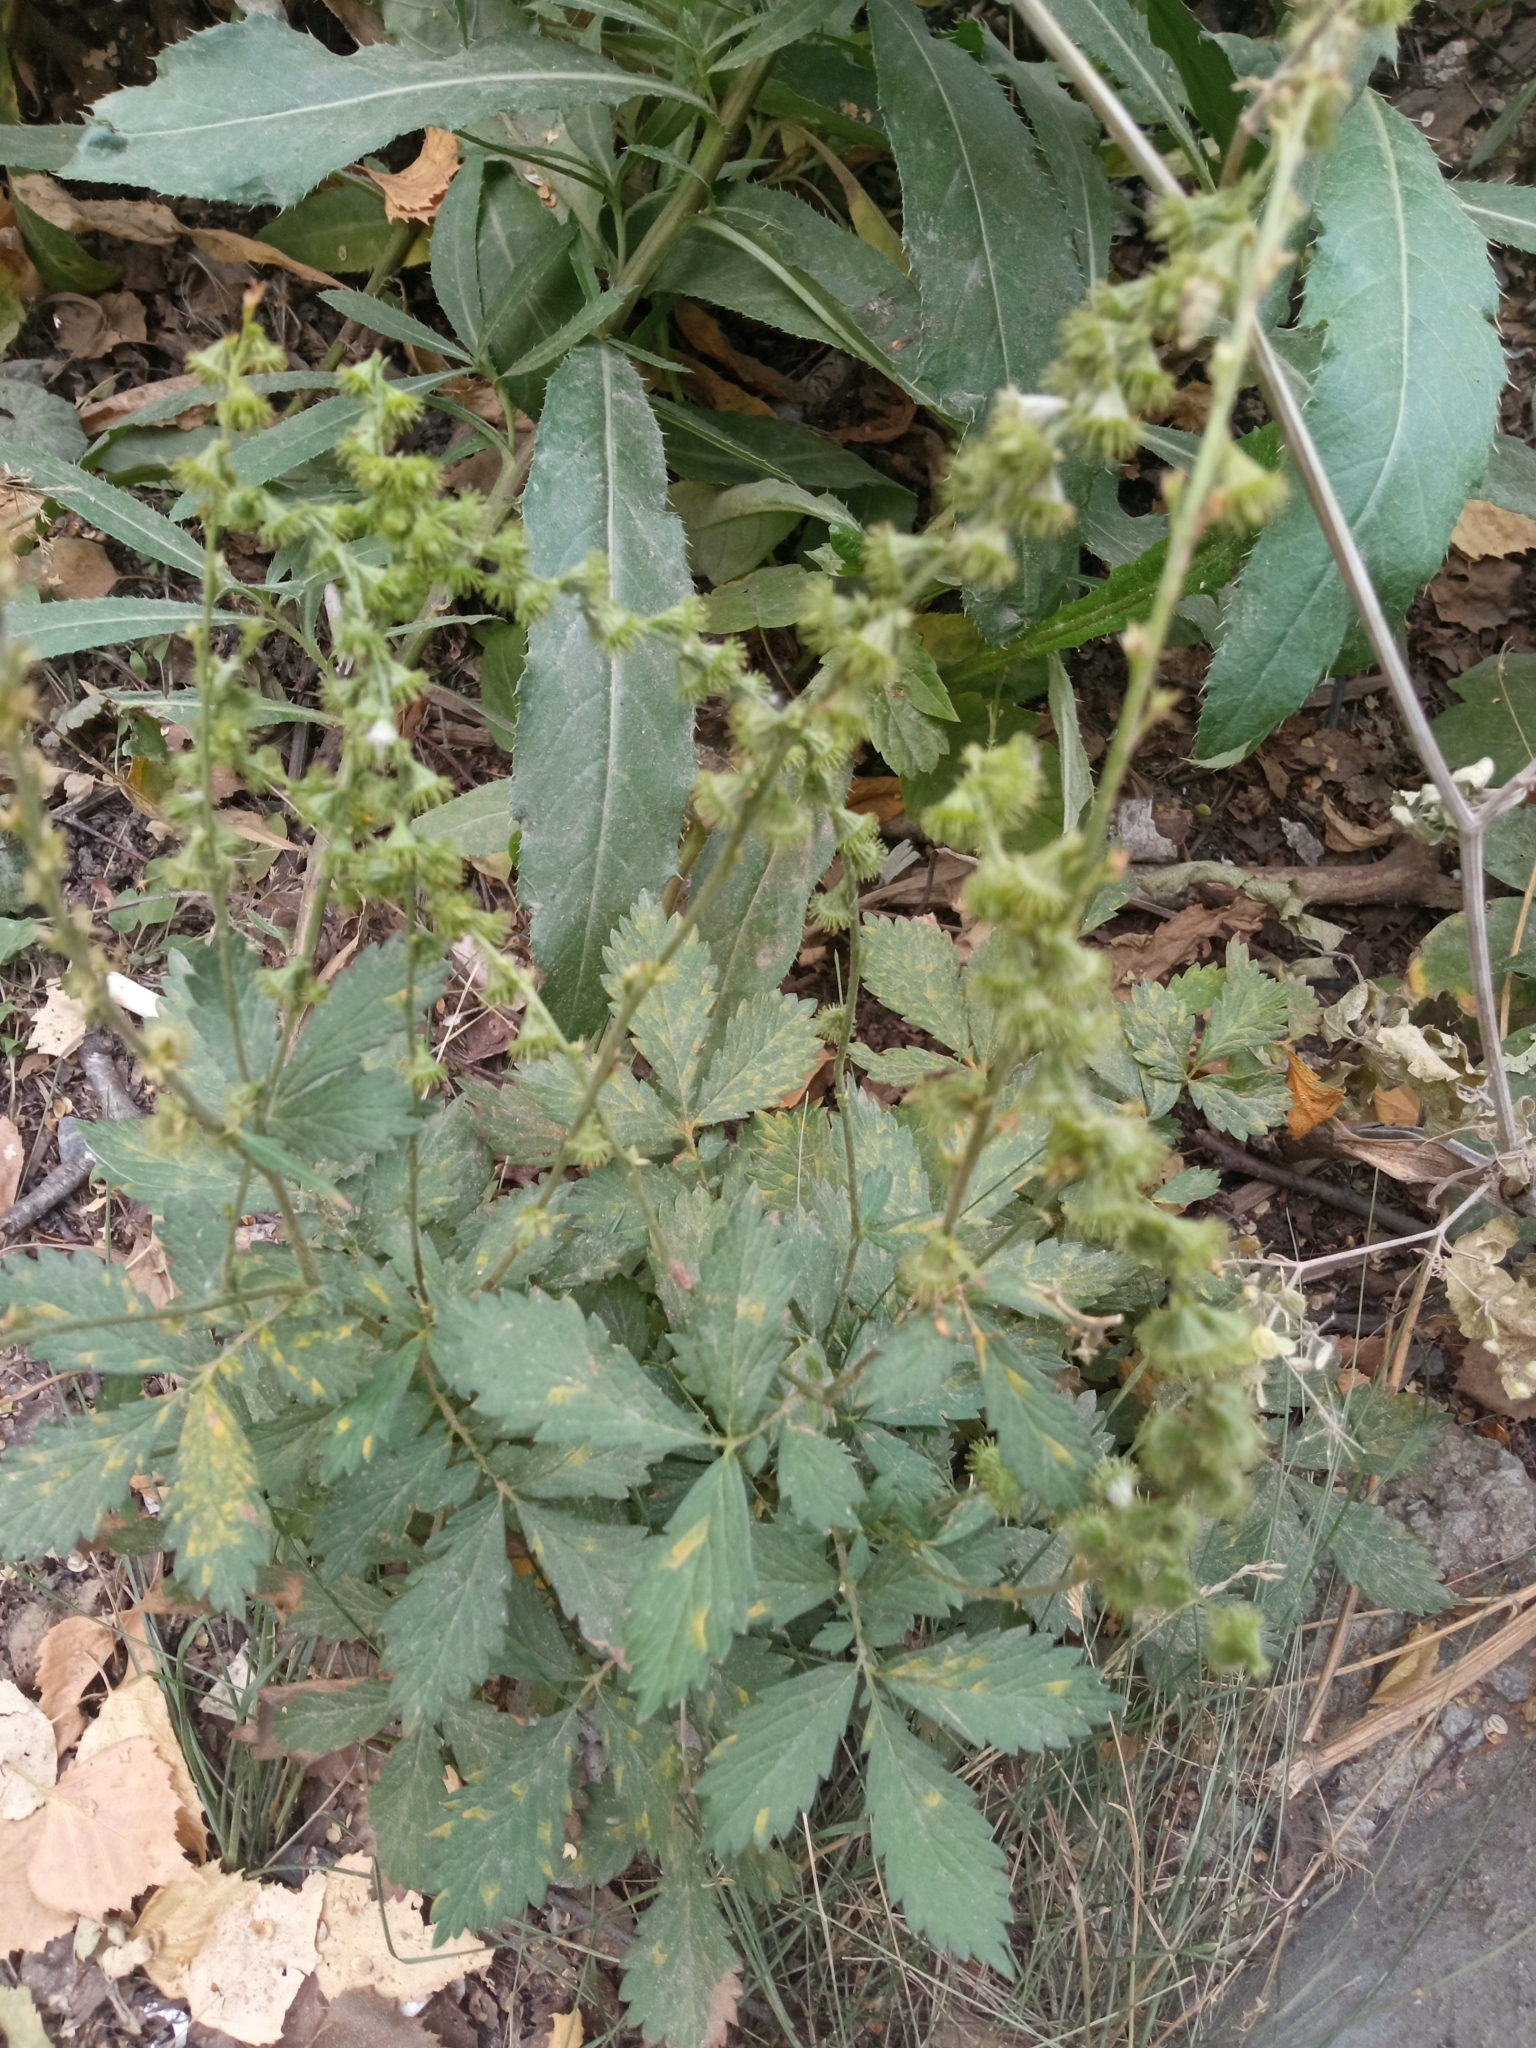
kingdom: Plantae
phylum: Tracheophyta
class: Magnoliopsida
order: Rosales
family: Rosaceae
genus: Agrimonia
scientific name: Agrimonia pilosa
